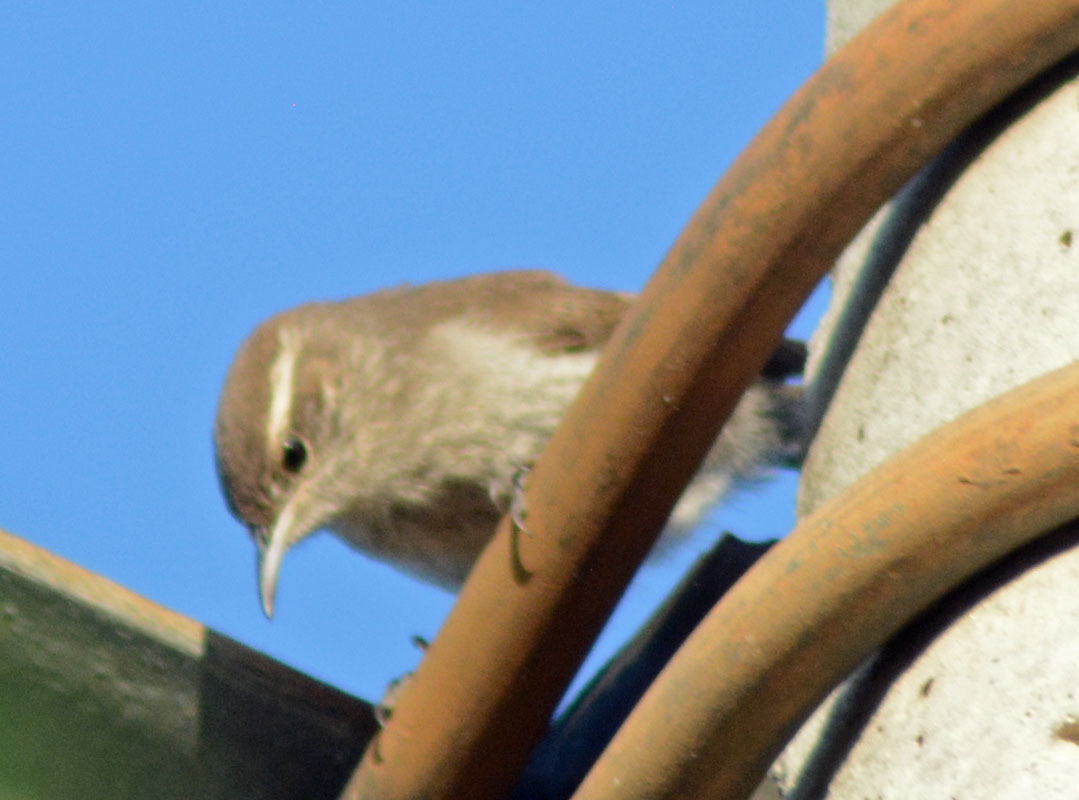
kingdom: Animalia
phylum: Chordata
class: Aves
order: Passeriformes
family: Troglodytidae
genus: Thryomanes
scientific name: Thryomanes bewickii
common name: Bewick's wren
